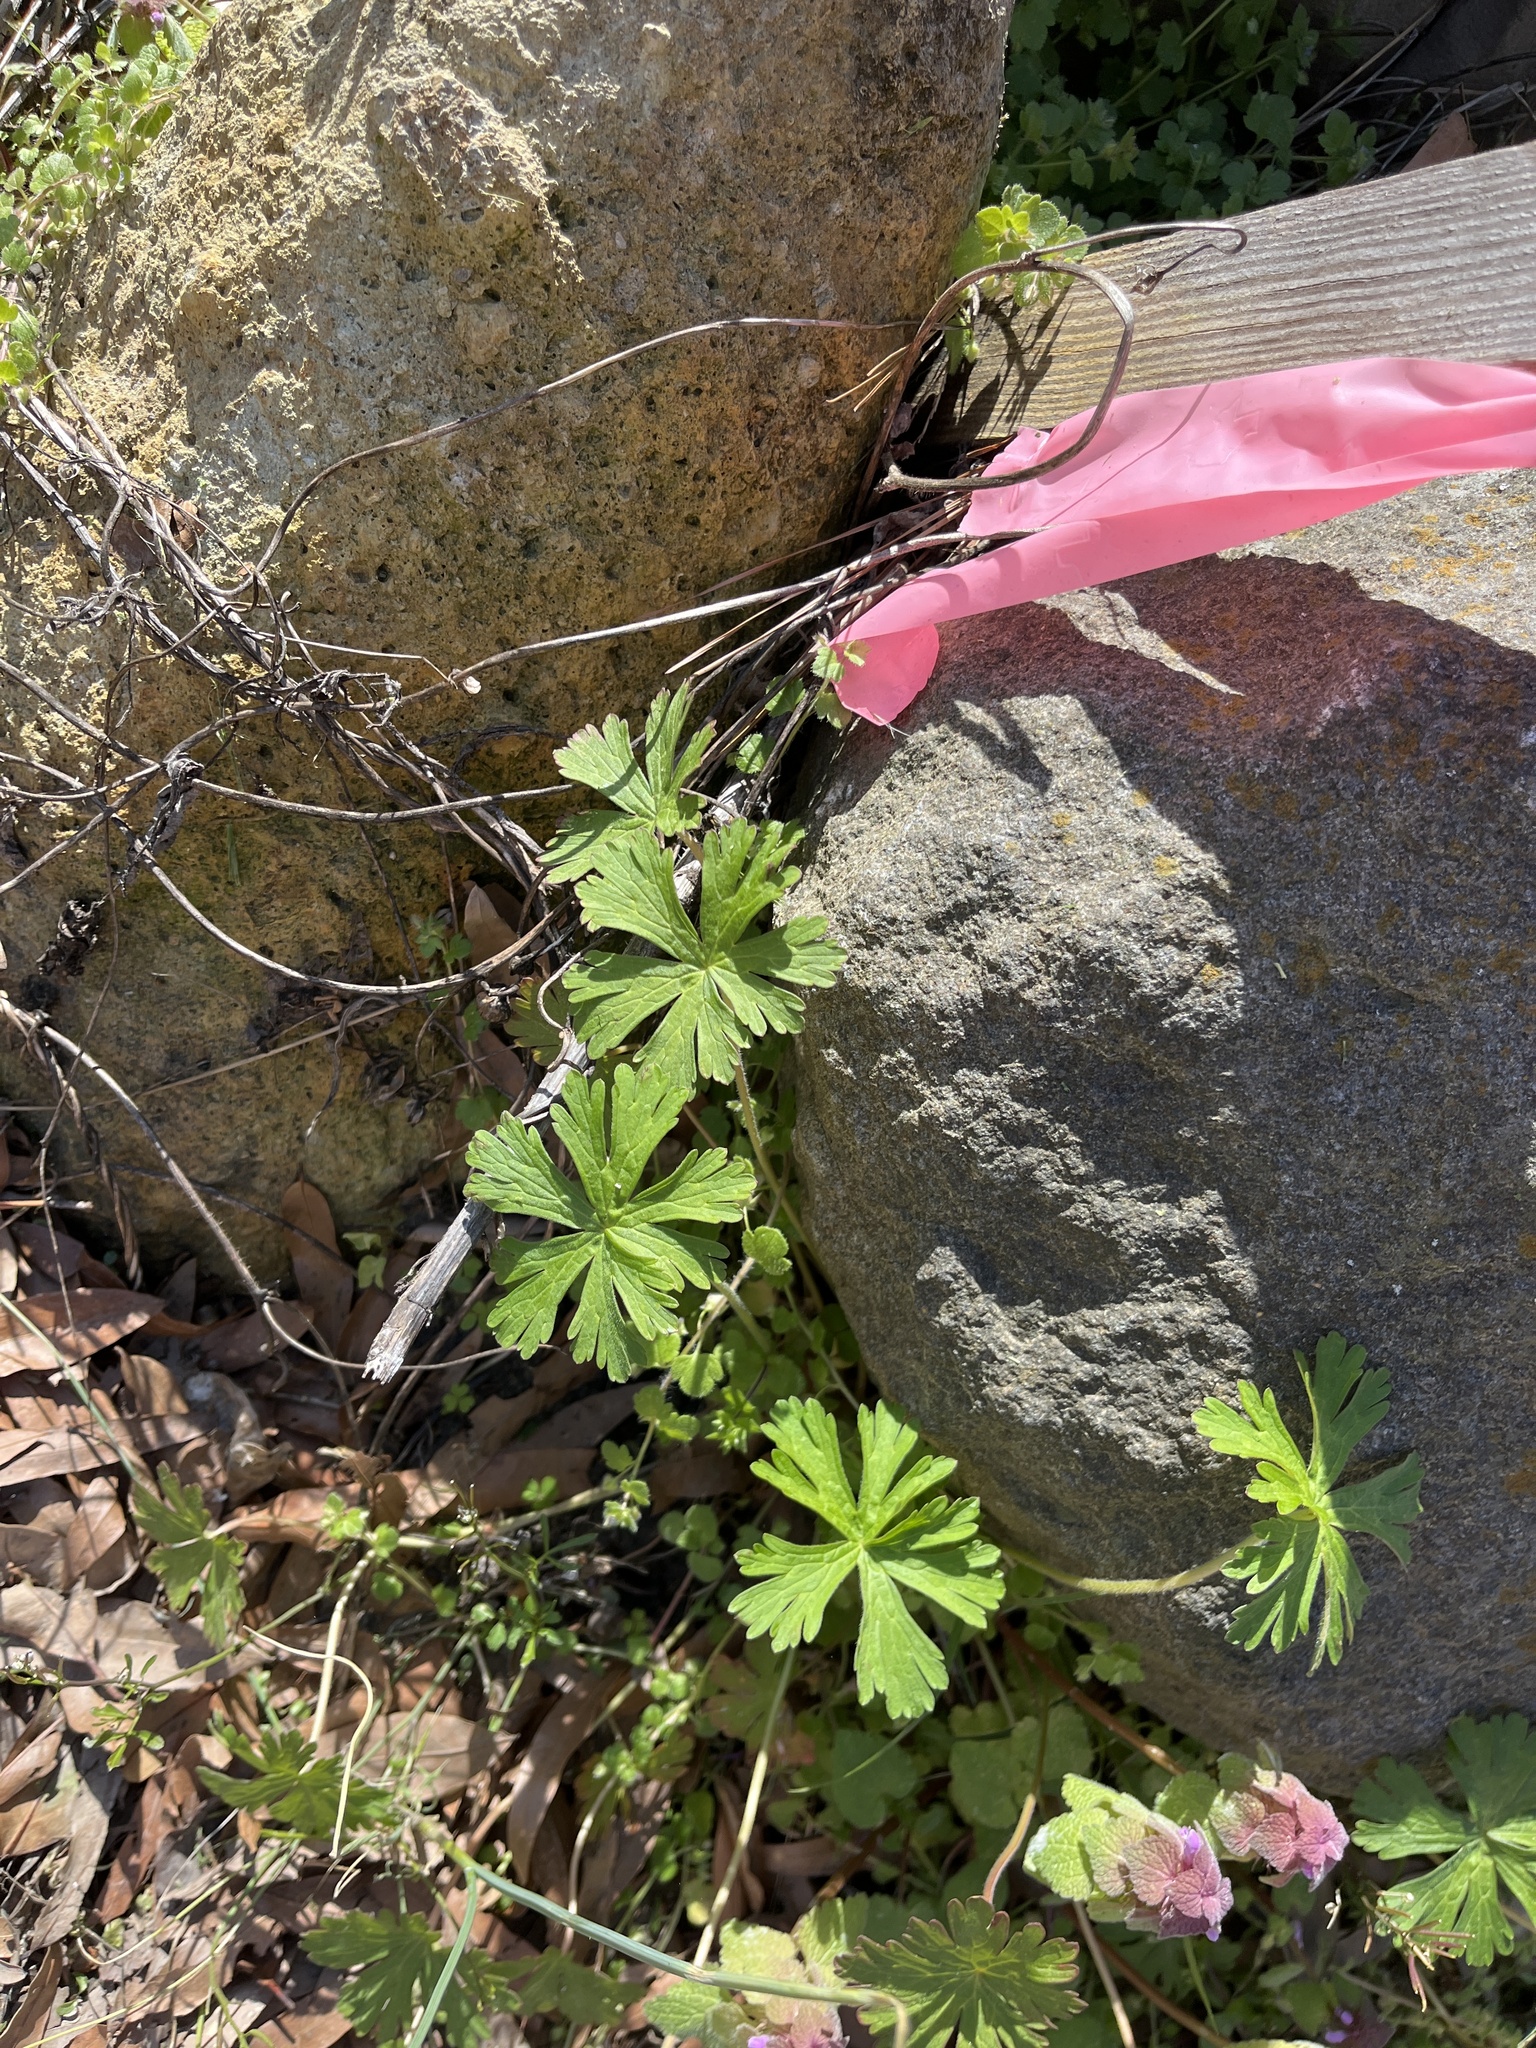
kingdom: Plantae
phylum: Tracheophyta
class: Magnoliopsida
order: Geraniales
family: Geraniaceae
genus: Geranium
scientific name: Geranium carolinianum
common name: Carolina crane's-bill
